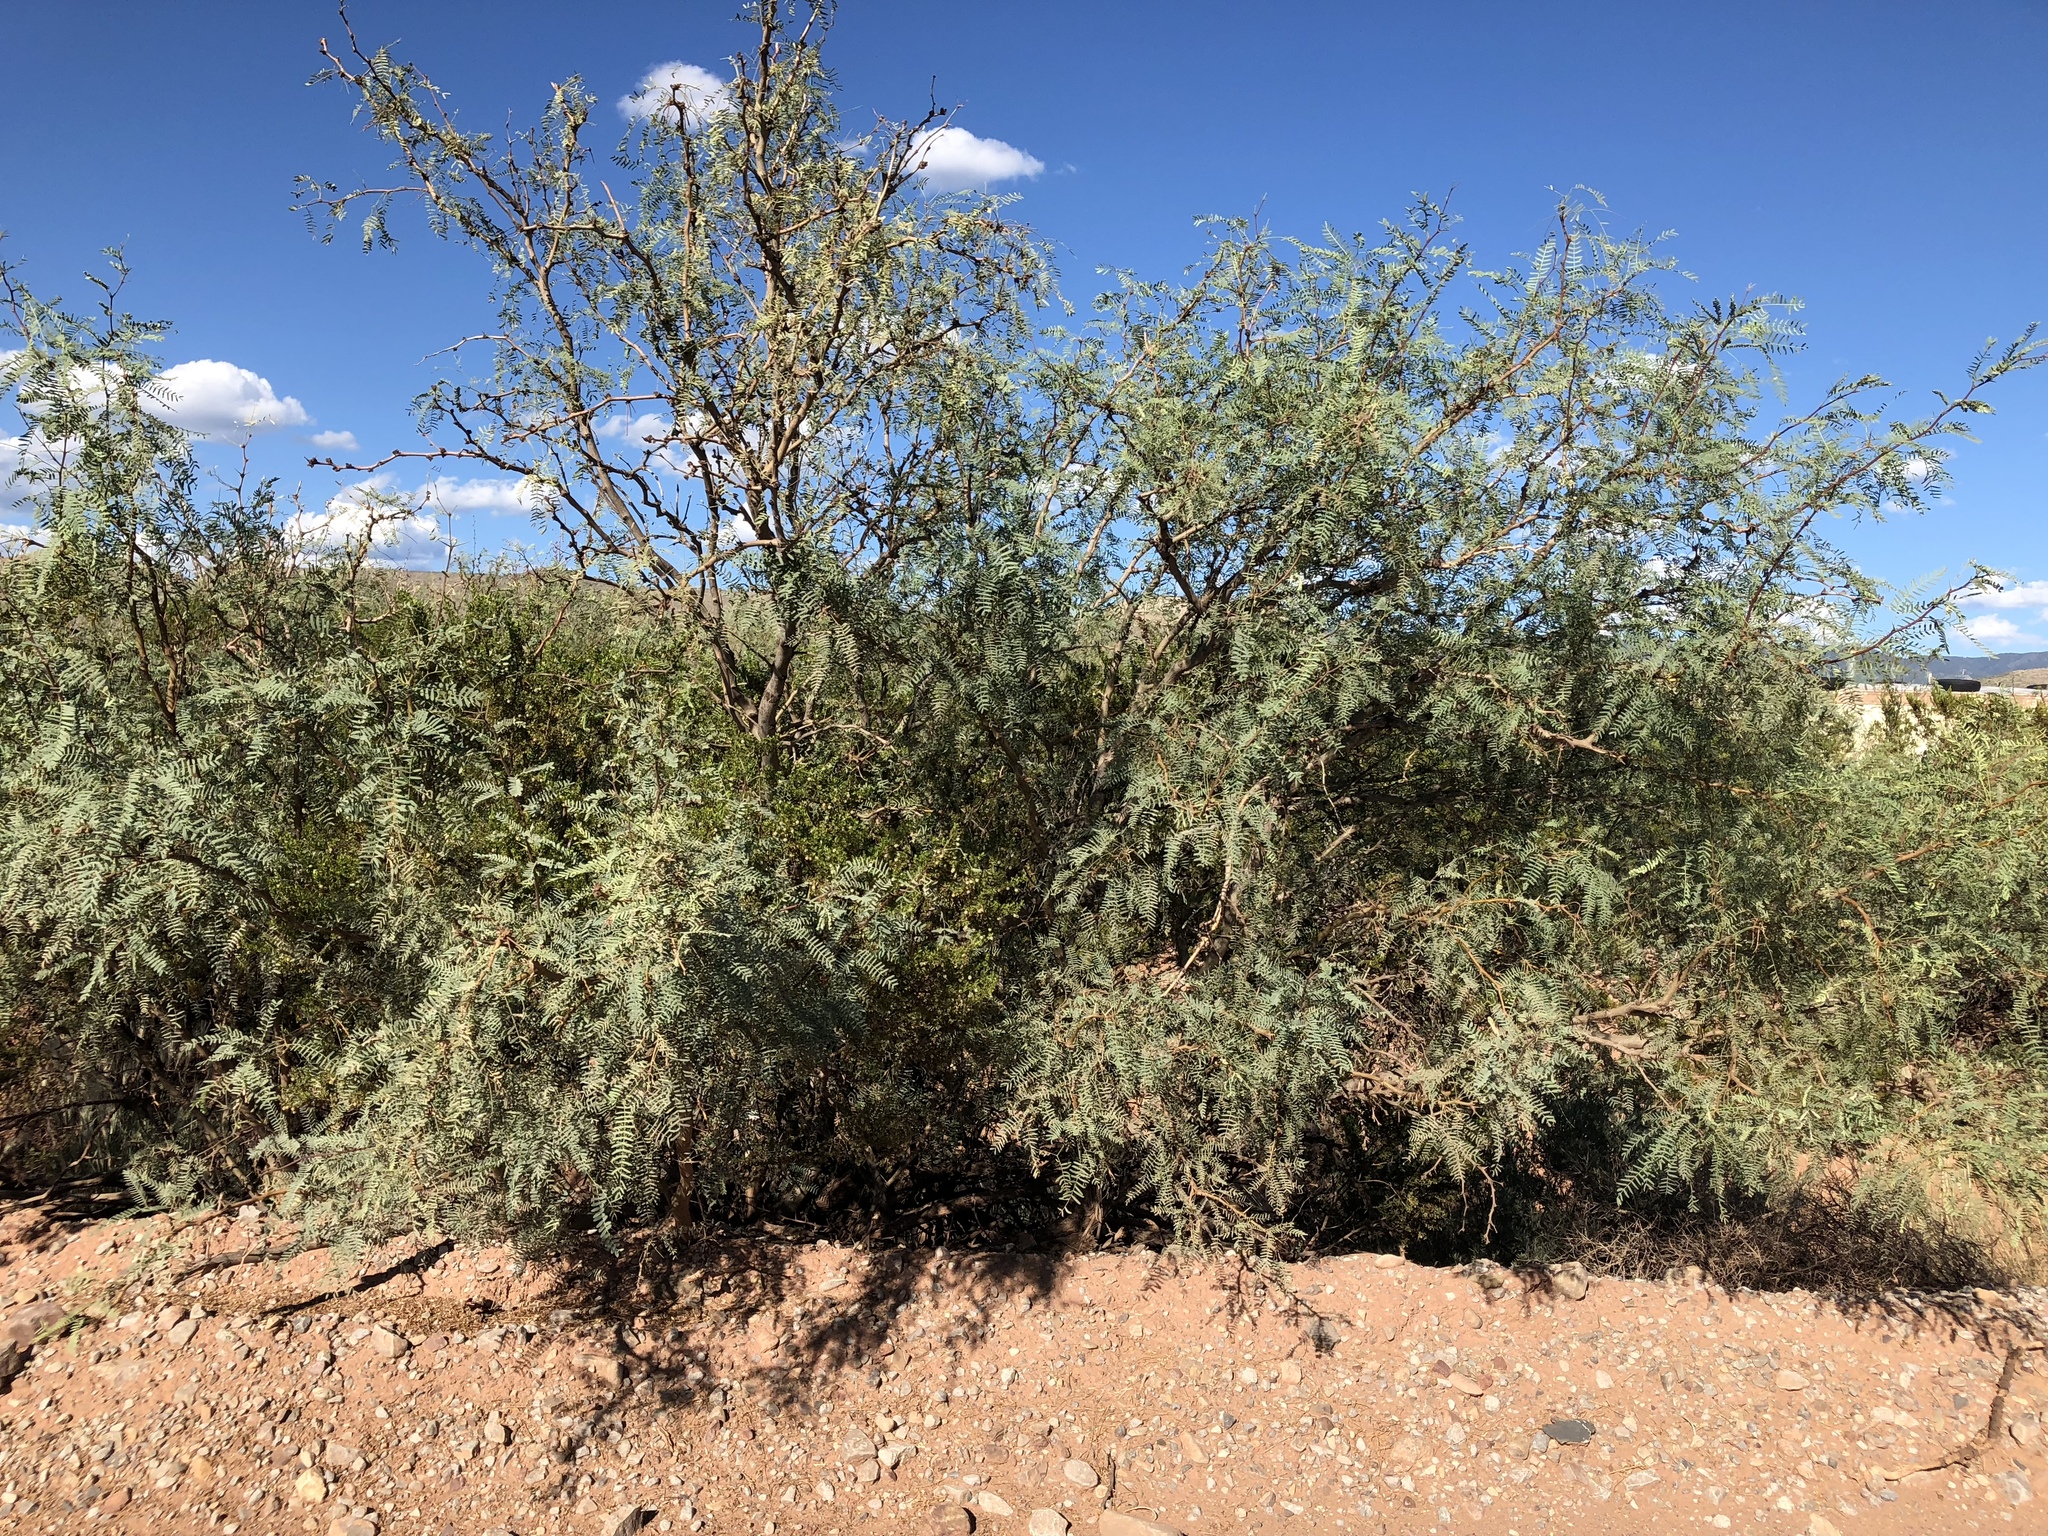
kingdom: Plantae
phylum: Tracheophyta
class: Magnoliopsida
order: Fabales
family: Fabaceae
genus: Prosopis
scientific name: Prosopis glandulosa
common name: Honey mesquite
